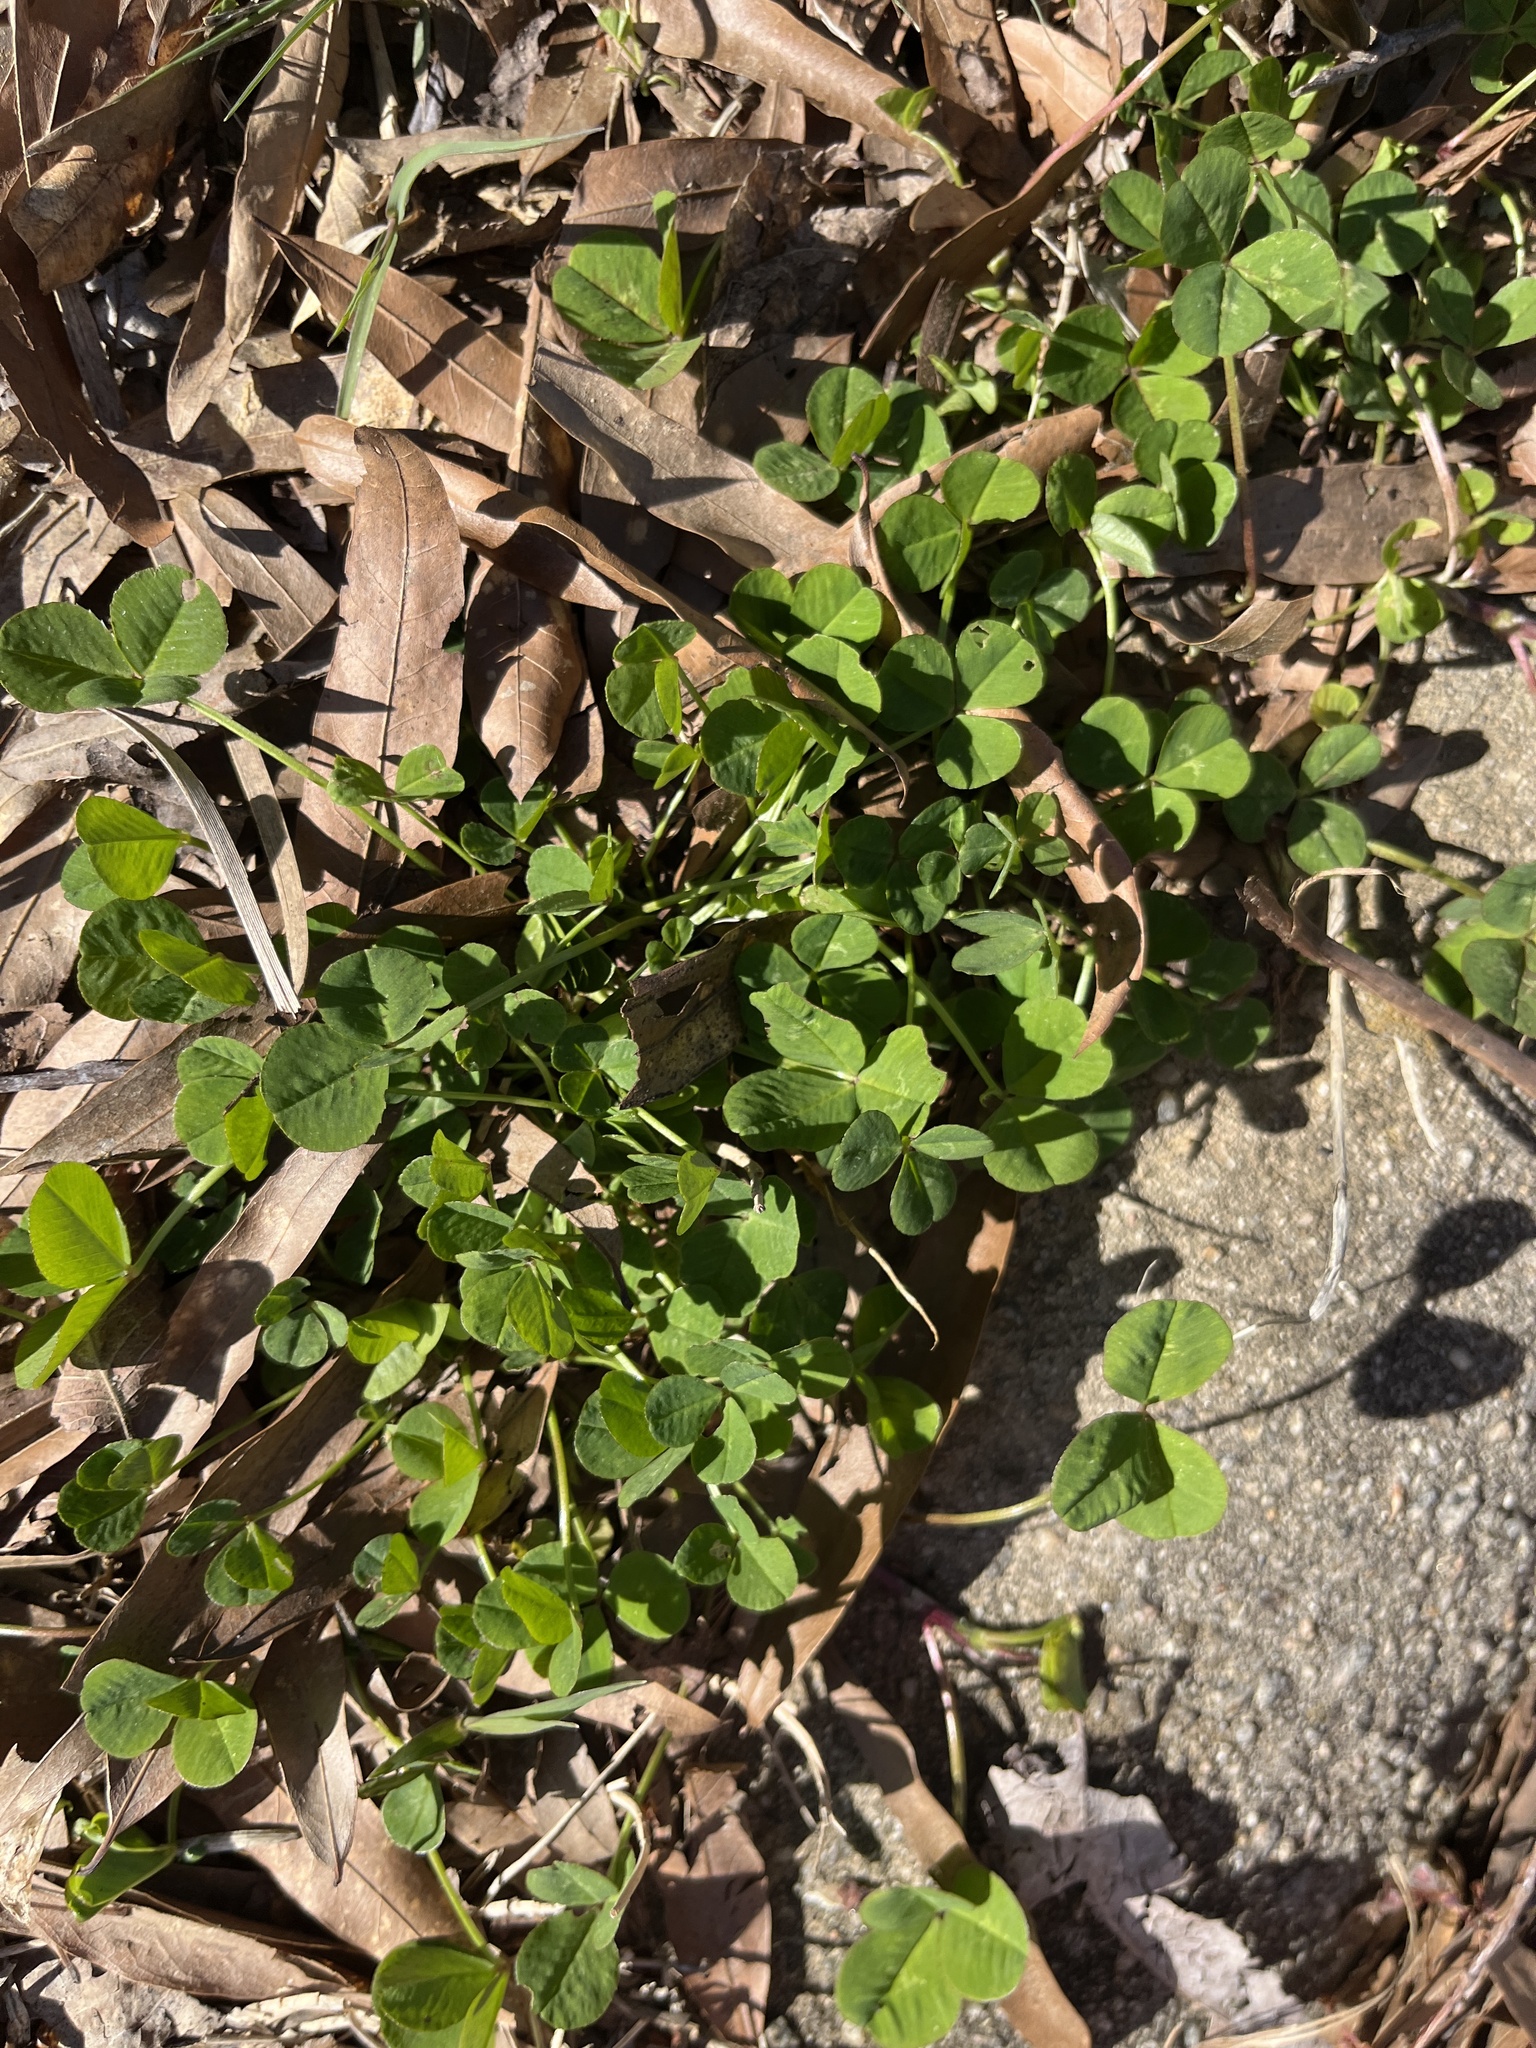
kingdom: Plantae
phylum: Tracheophyta
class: Magnoliopsida
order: Fabales
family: Fabaceae
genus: Trifolium
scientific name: Trifolium repens
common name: White clover
